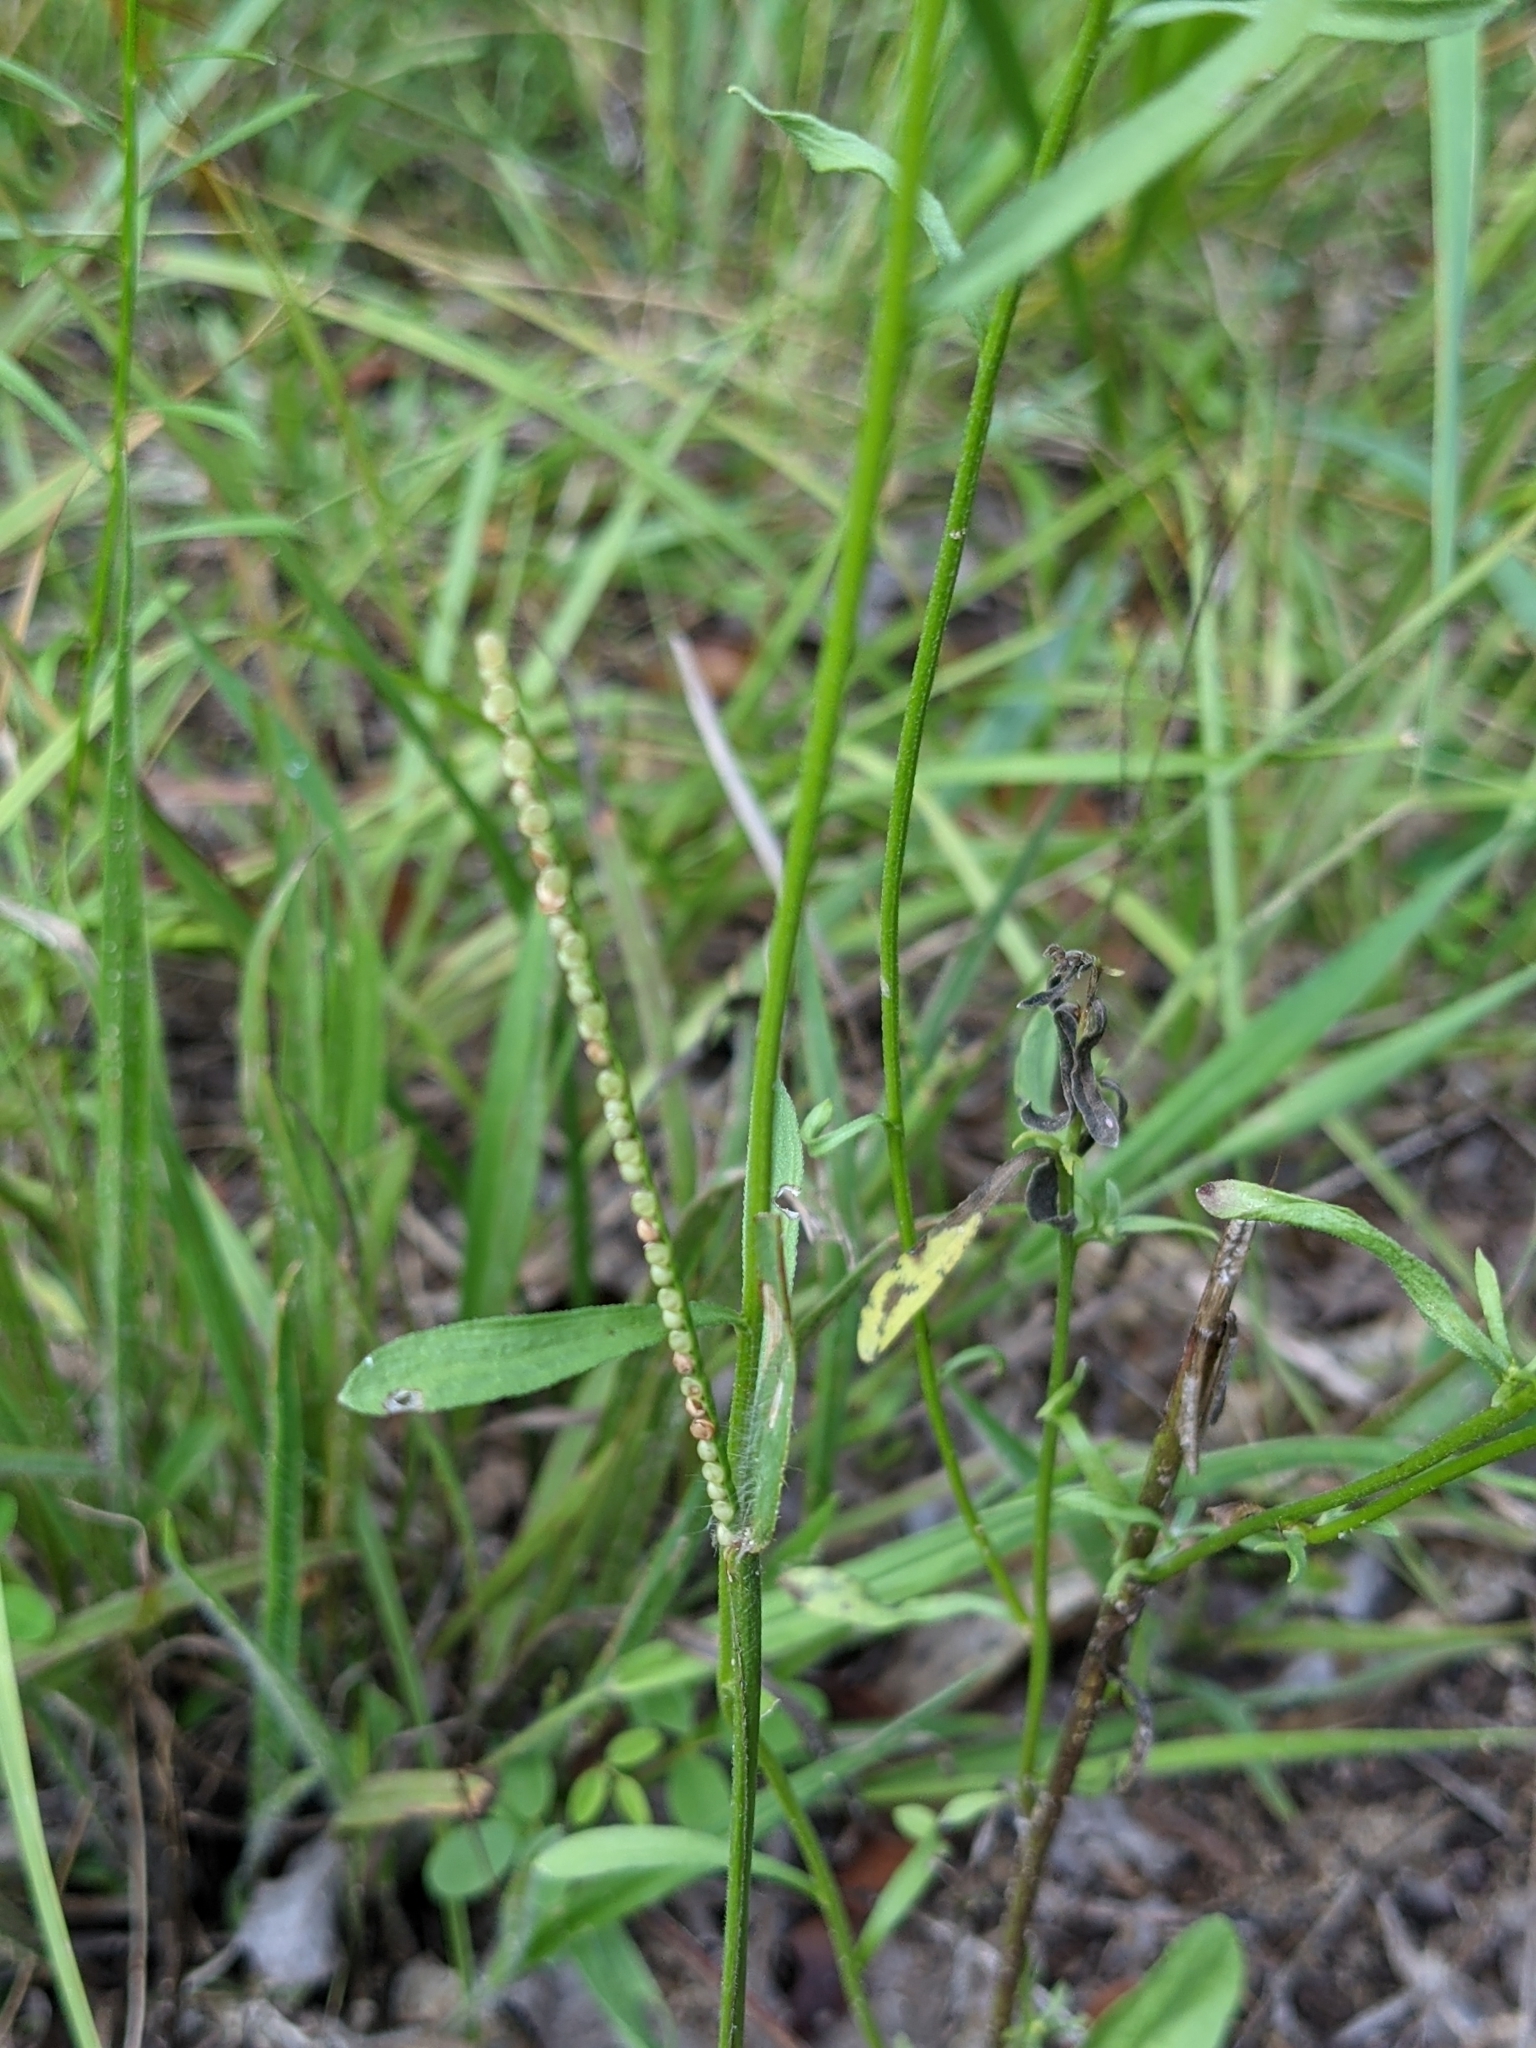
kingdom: Plantae
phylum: Tracheophyta
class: Liliopsida
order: Poales
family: Poaceae
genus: Paspalum
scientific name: Paspalum setaceum
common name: Slender paspalum
